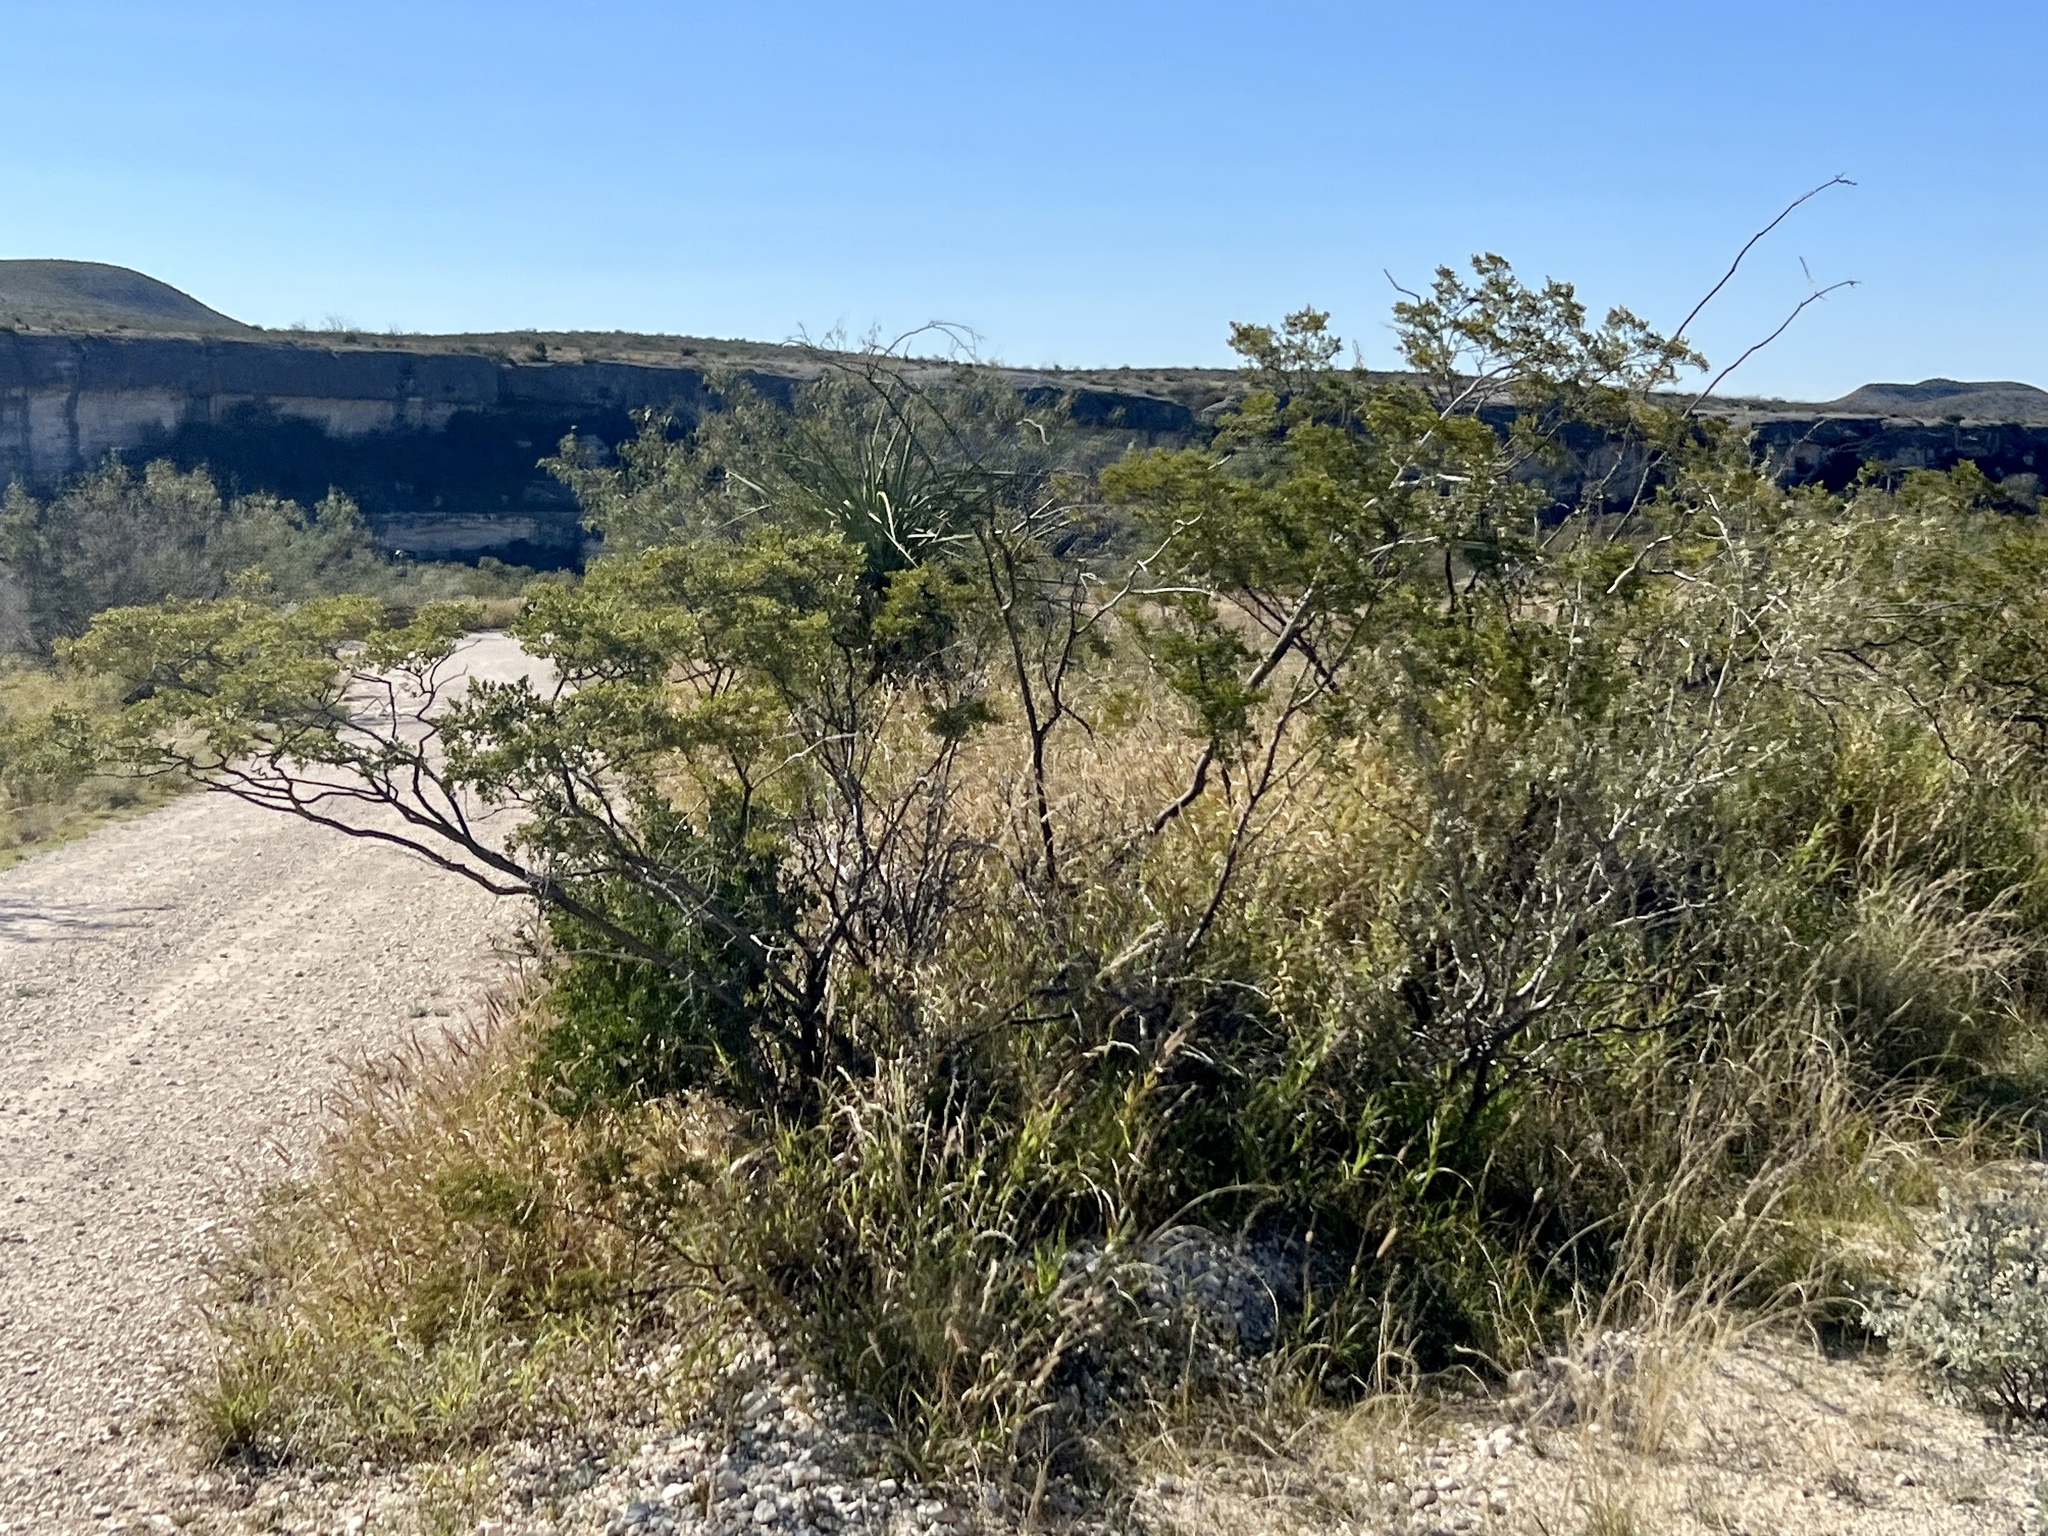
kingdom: Plantae
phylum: Tracheophyta
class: Magnoliopsida
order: Zygophyllales
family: Zygophyllaceae
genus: Larrea
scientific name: Larrea tridentata
